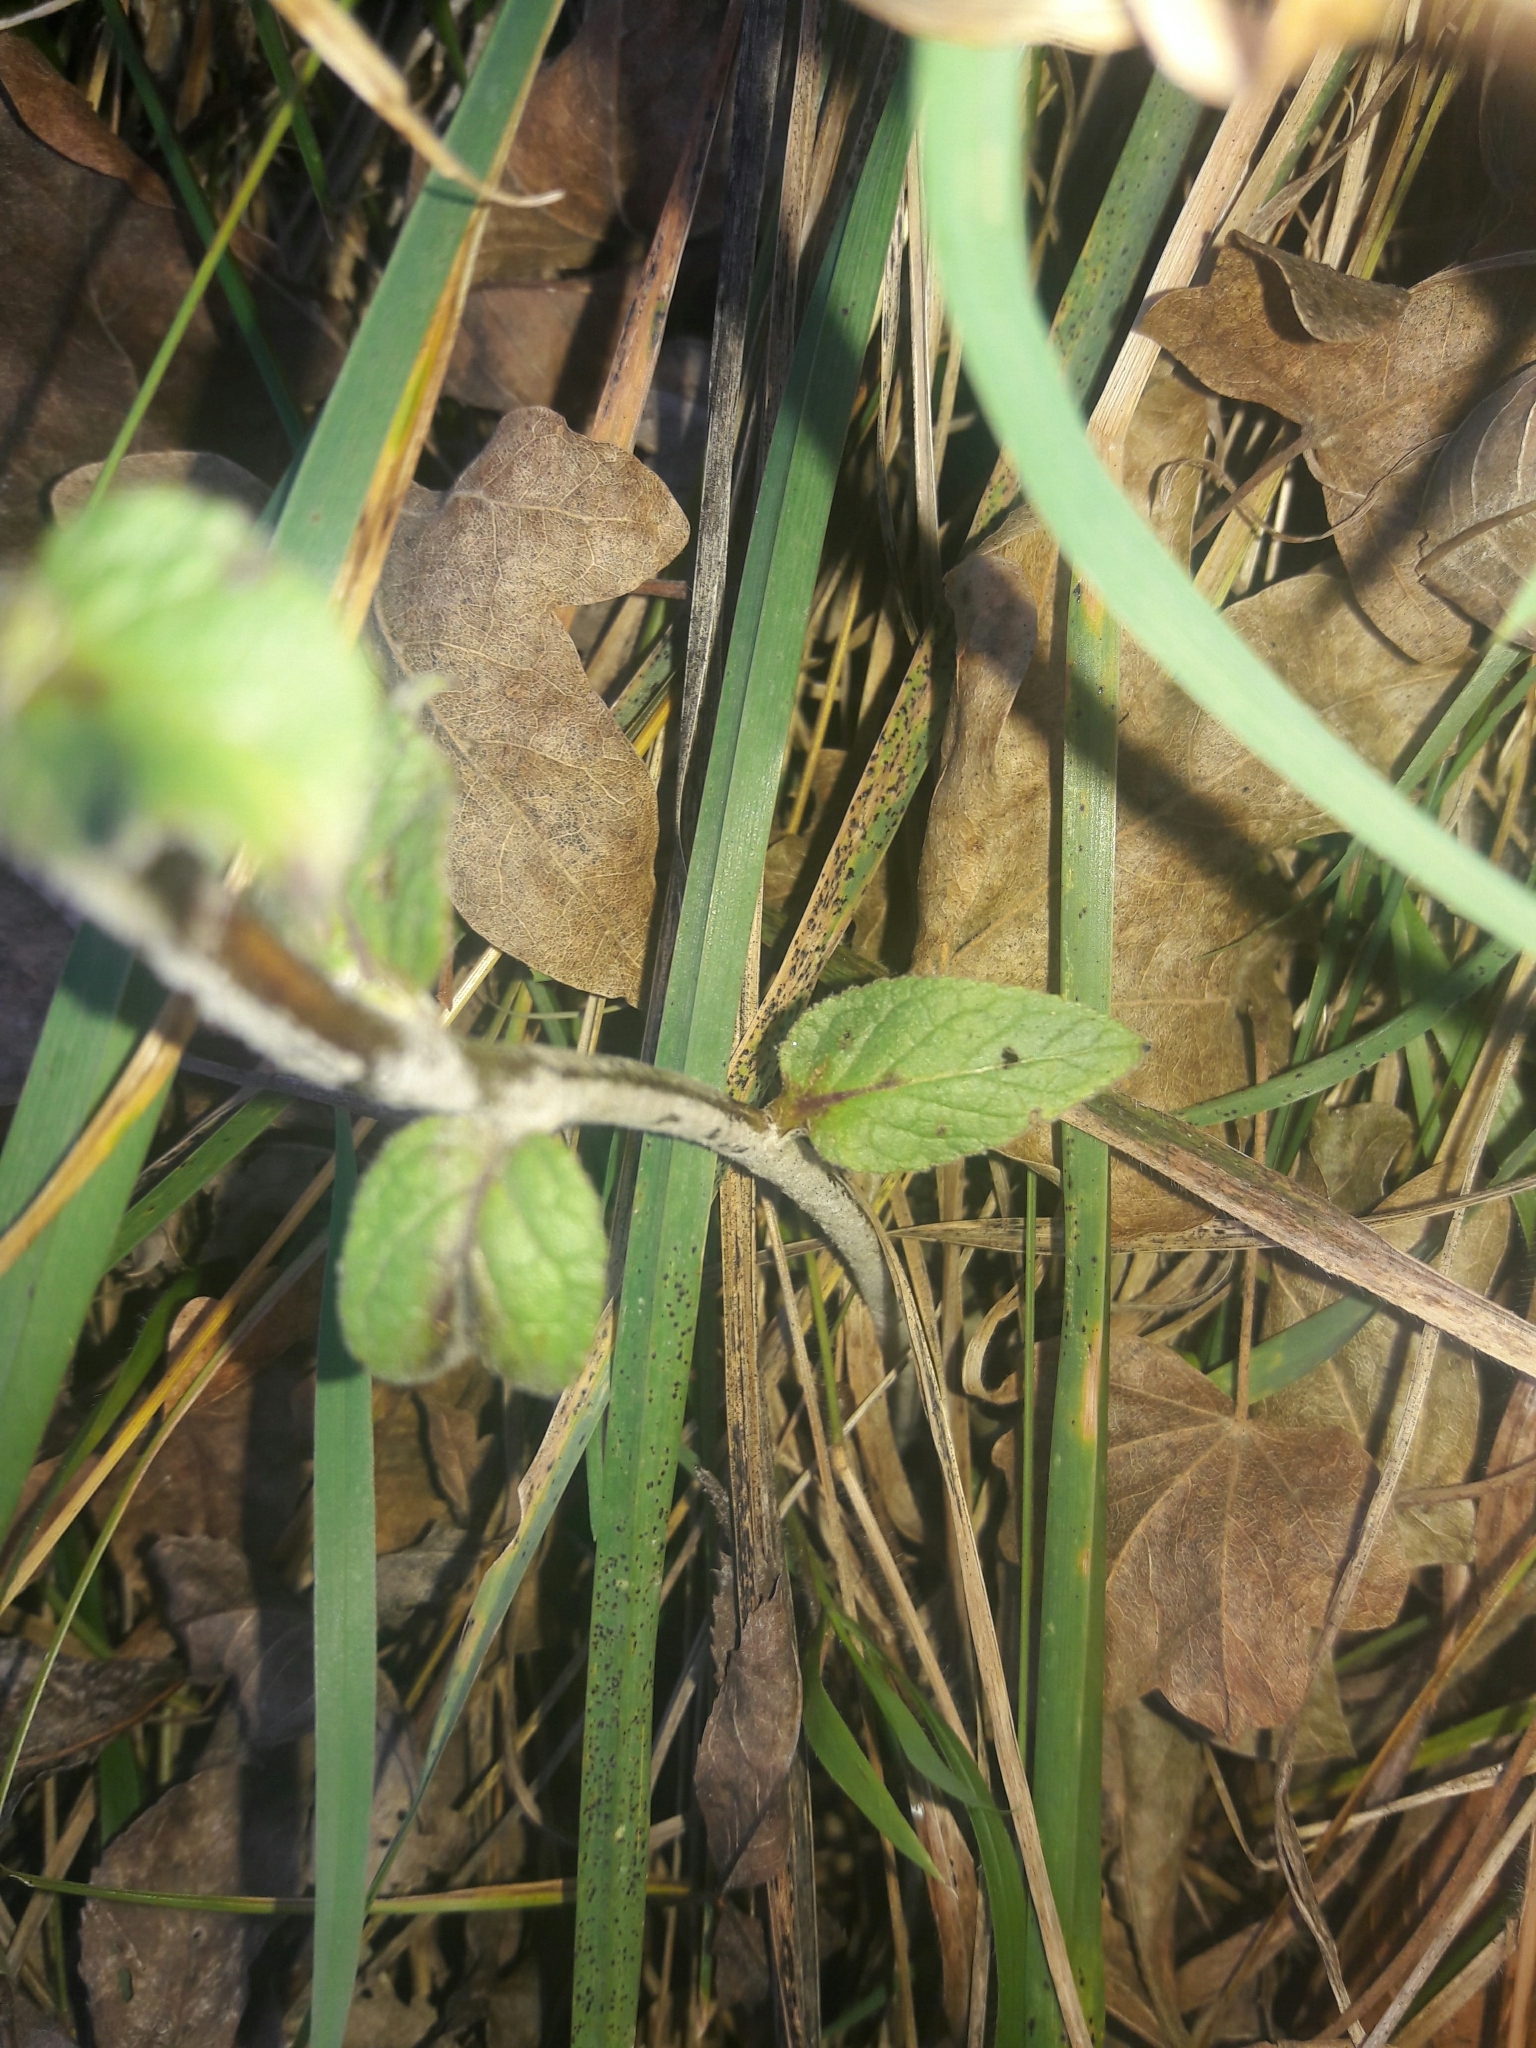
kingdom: Plantae
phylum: Tracheophyta
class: Magnoliopsida
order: Lamiales
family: Scrophulariaceae
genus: Verbascum
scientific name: Verbascum nigrum
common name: Dark mullein
